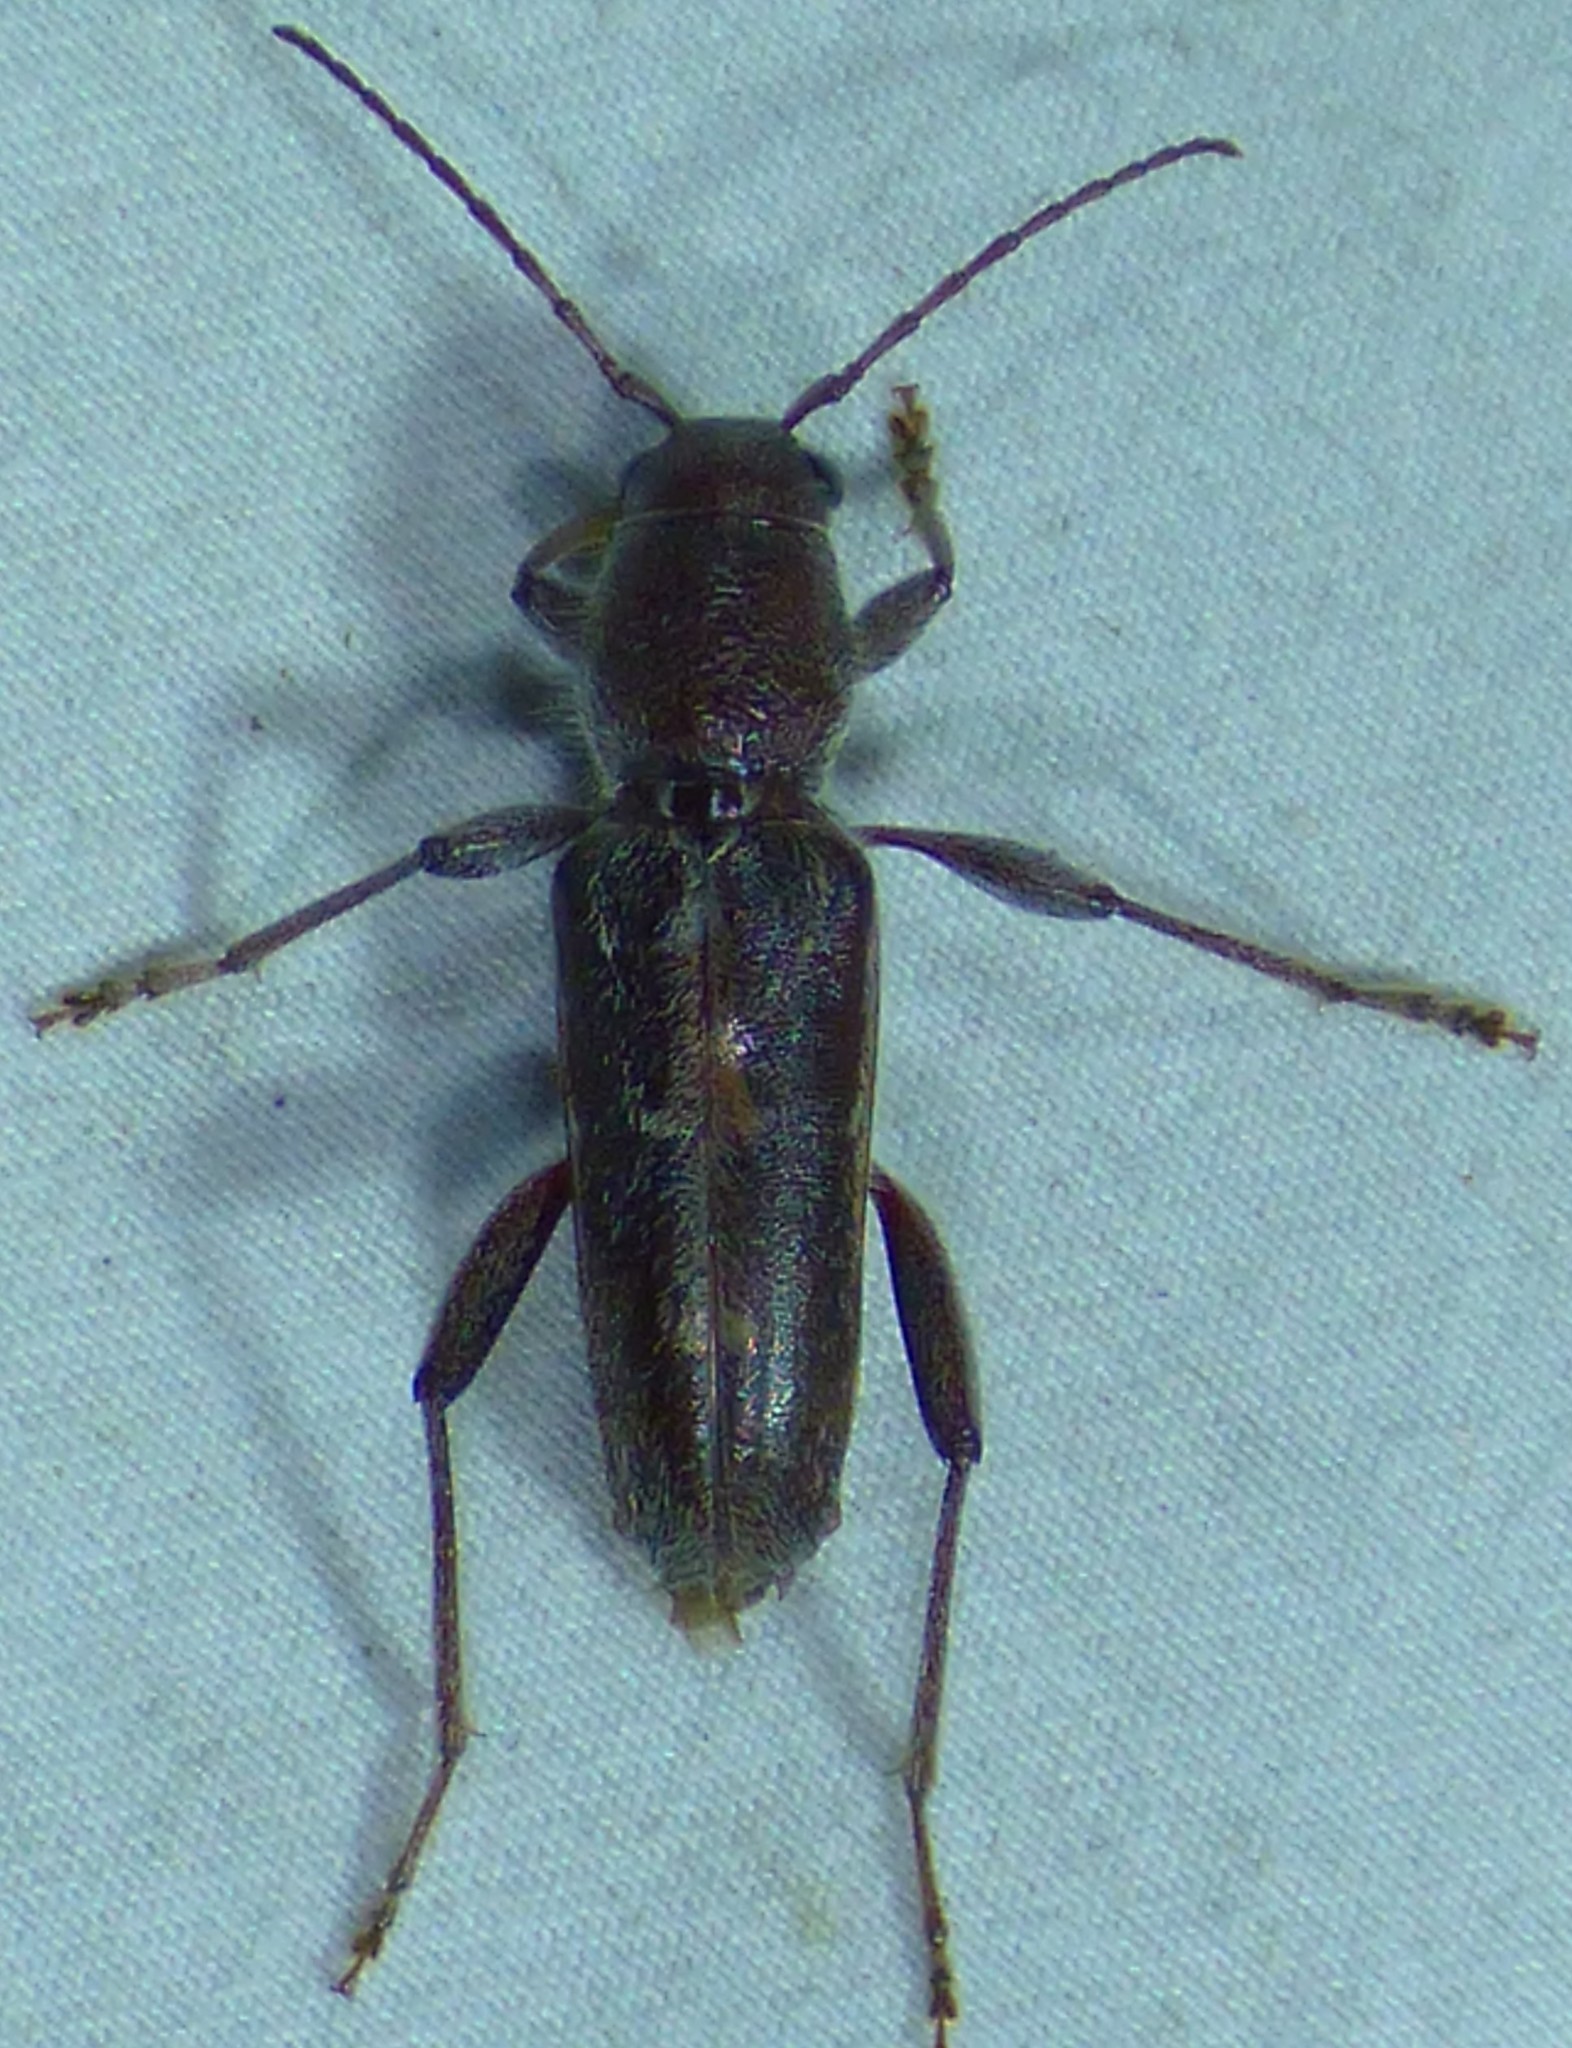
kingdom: Animalia
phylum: Arthropoda
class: Insecta
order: Coleoptera
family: Cerambycidae
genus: Xylotrechus
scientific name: Xylotrechus sagittatus
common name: Arrowhead borer
